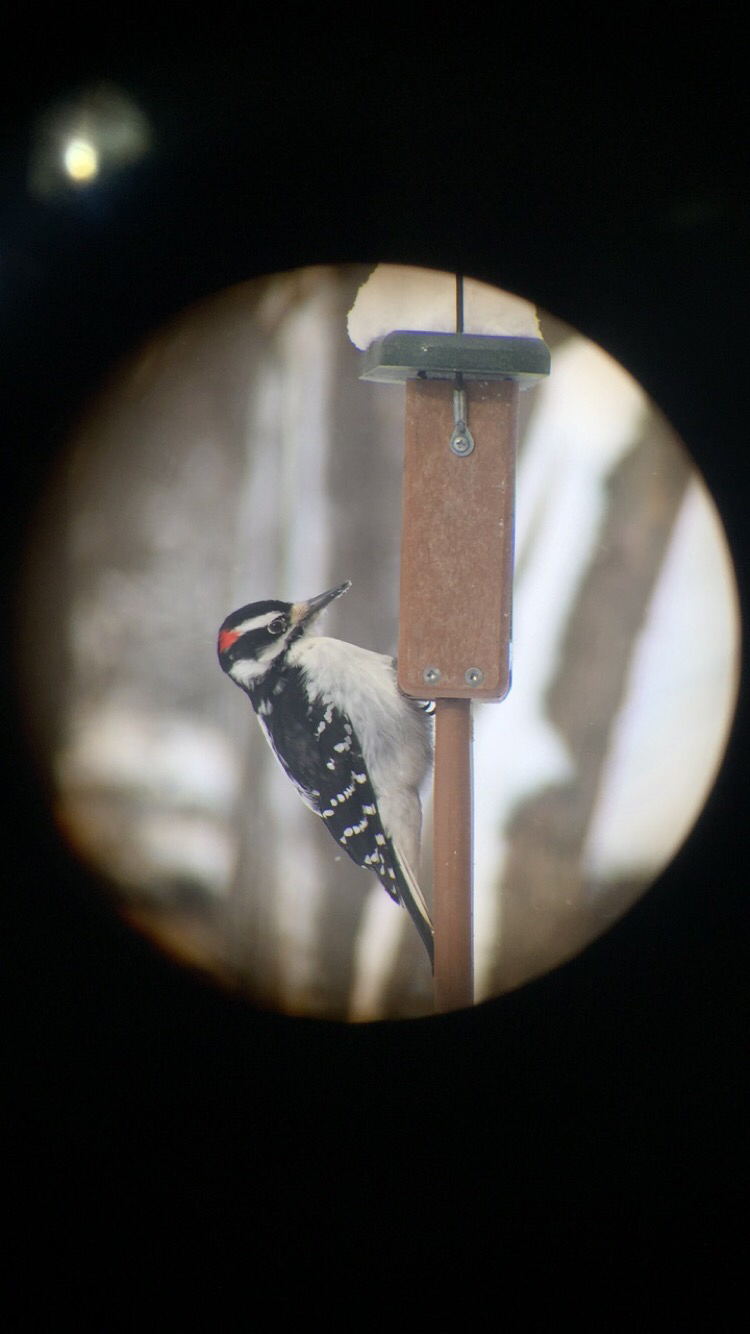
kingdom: Animalia
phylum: Chordata
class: Aves
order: Piciformes
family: Picidae
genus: Leuconotopicus
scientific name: Leuconotopicus villosus
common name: Hairy woodpecker
